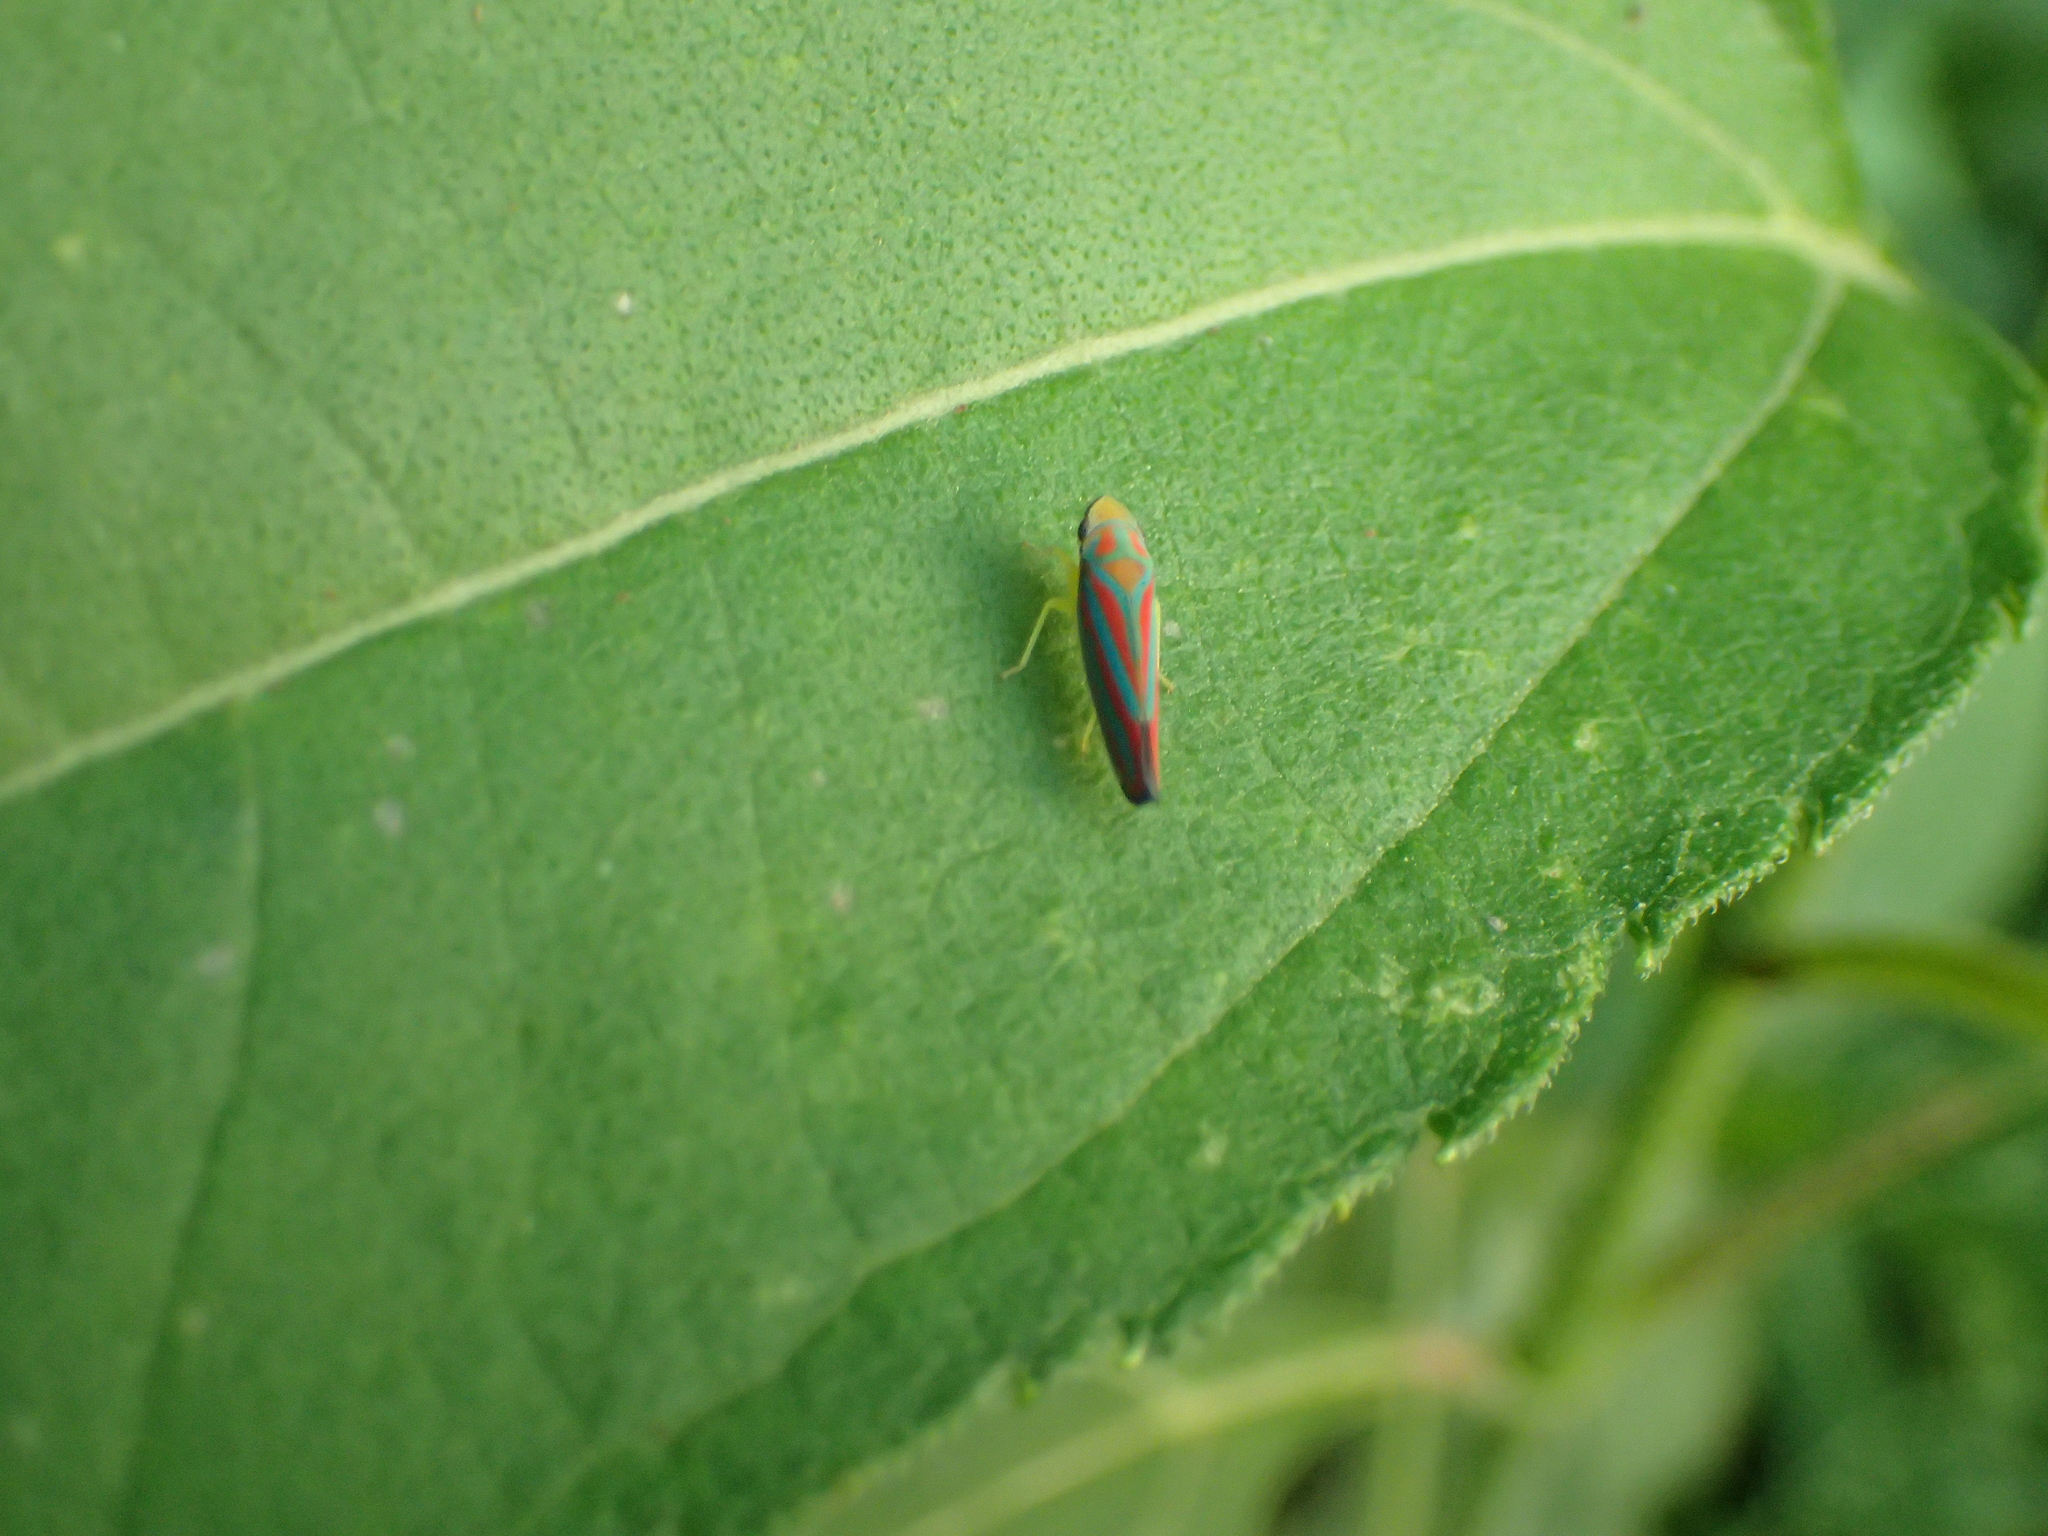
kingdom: Animalia
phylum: Arthropoda
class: Insecta
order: Hemiptera
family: Cicadellidae
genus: Graphocephala
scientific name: Graphocephala coccinea
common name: Candy-striped leafhopper
